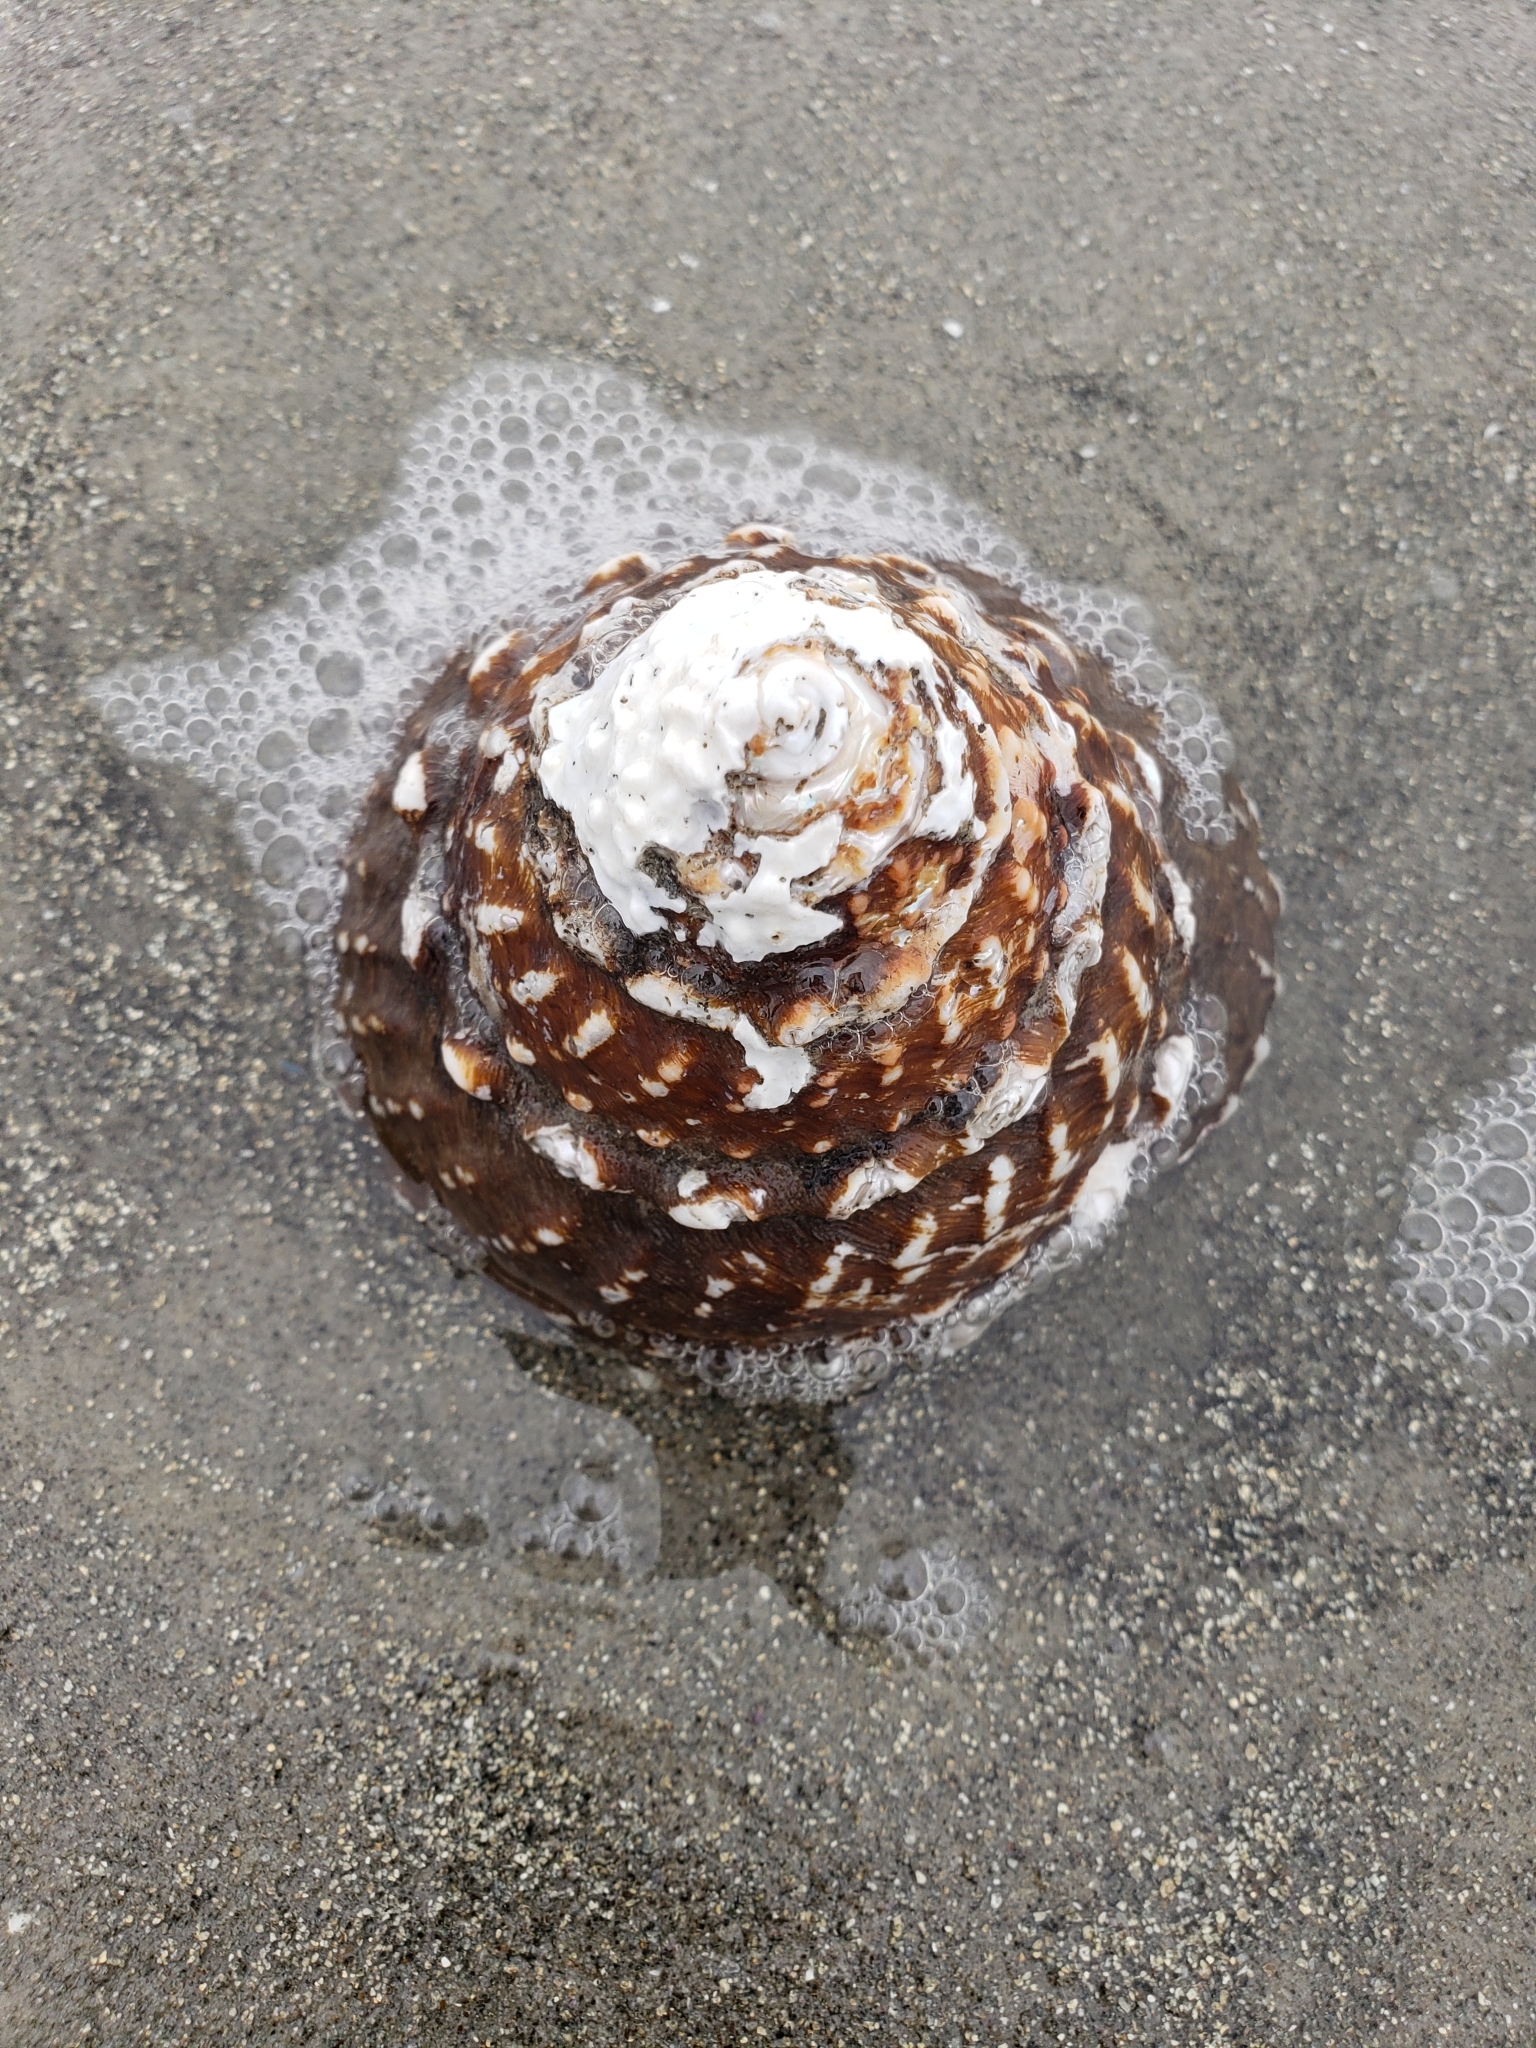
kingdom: Animalia
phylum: Mollusca
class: Gastropoda
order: Trochida
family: Turbinidae
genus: Megastraea
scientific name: Megastraea undosa
